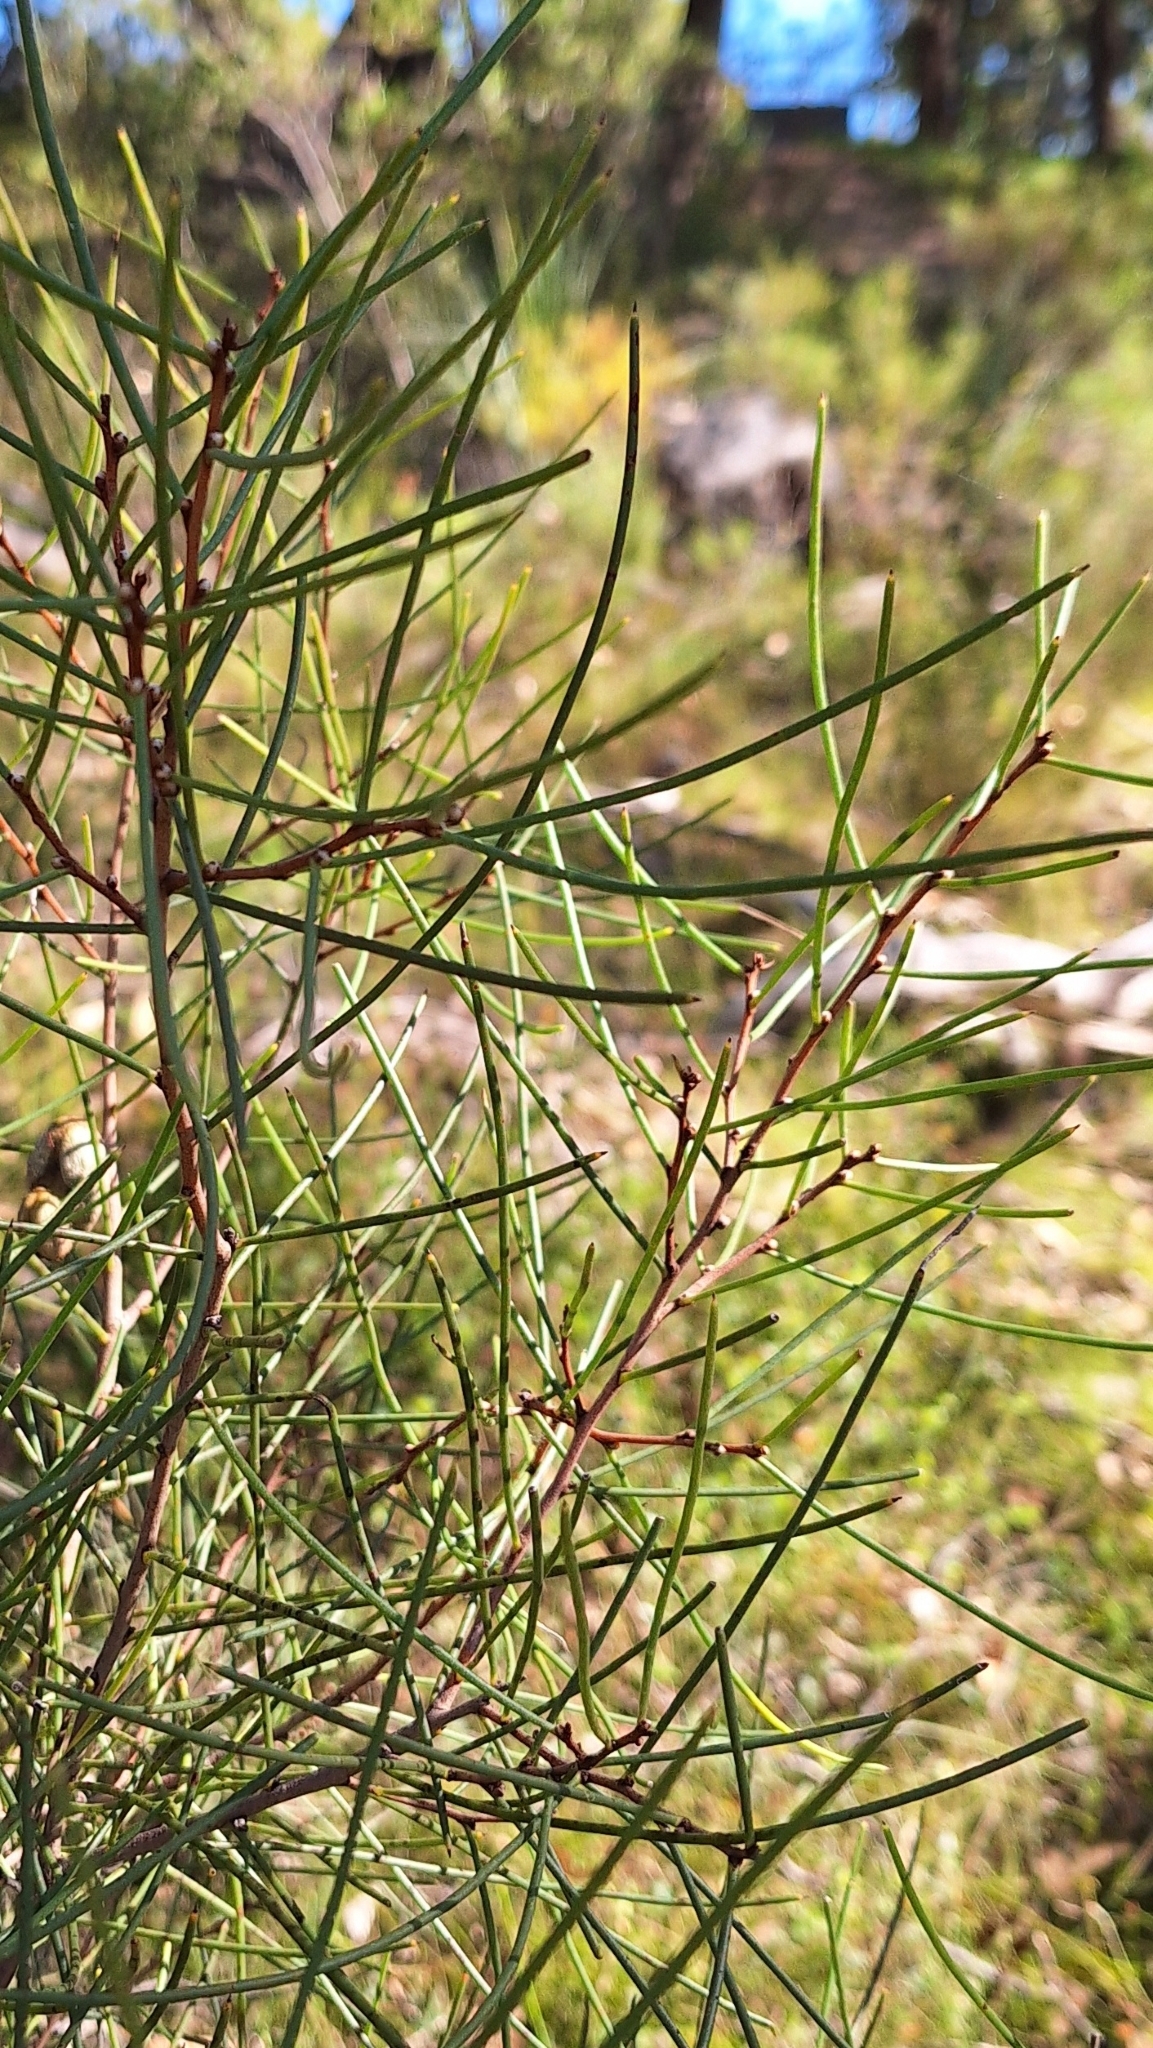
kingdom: Plantae
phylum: Tracheophyta
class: Magnoliopsida
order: Proteales
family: Proteaceae
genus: Hakea
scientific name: Hakea rostrata
